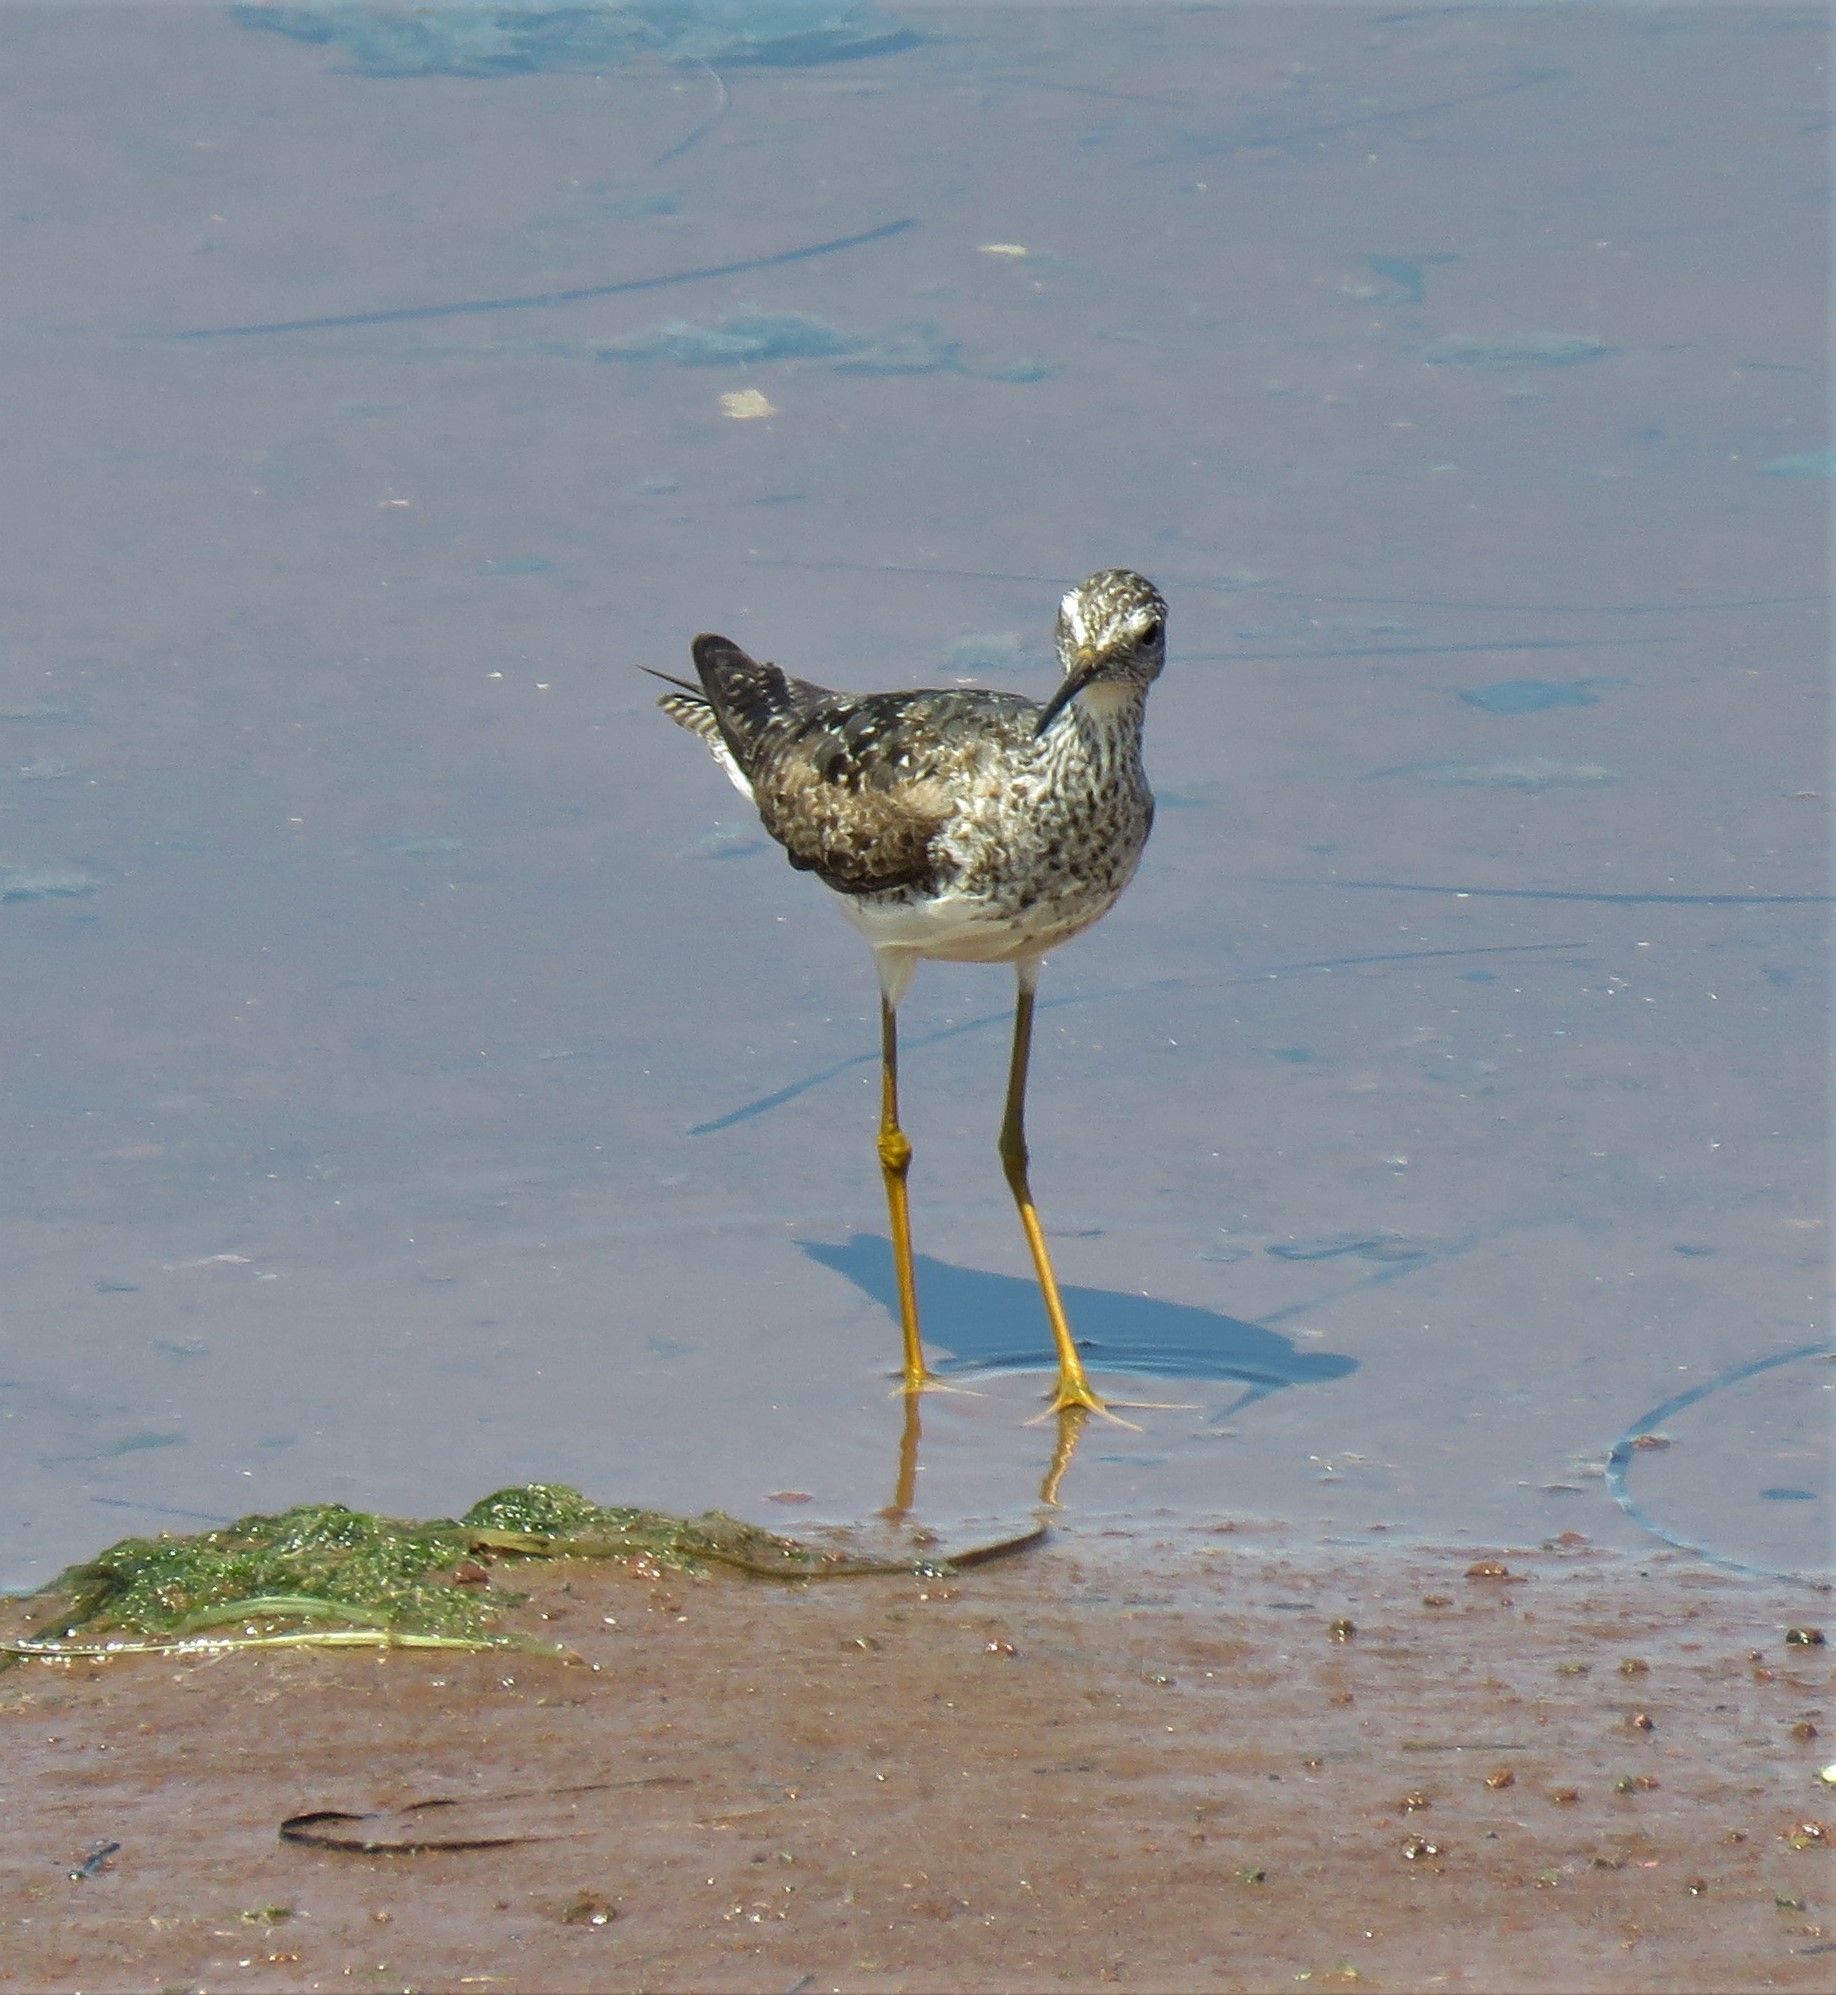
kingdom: Animalia
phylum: Chordata
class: Aves
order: Charadriiformes
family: Scolopacidae
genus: Tringa
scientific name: Tringa flavipes
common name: Lesser yellowlegs
